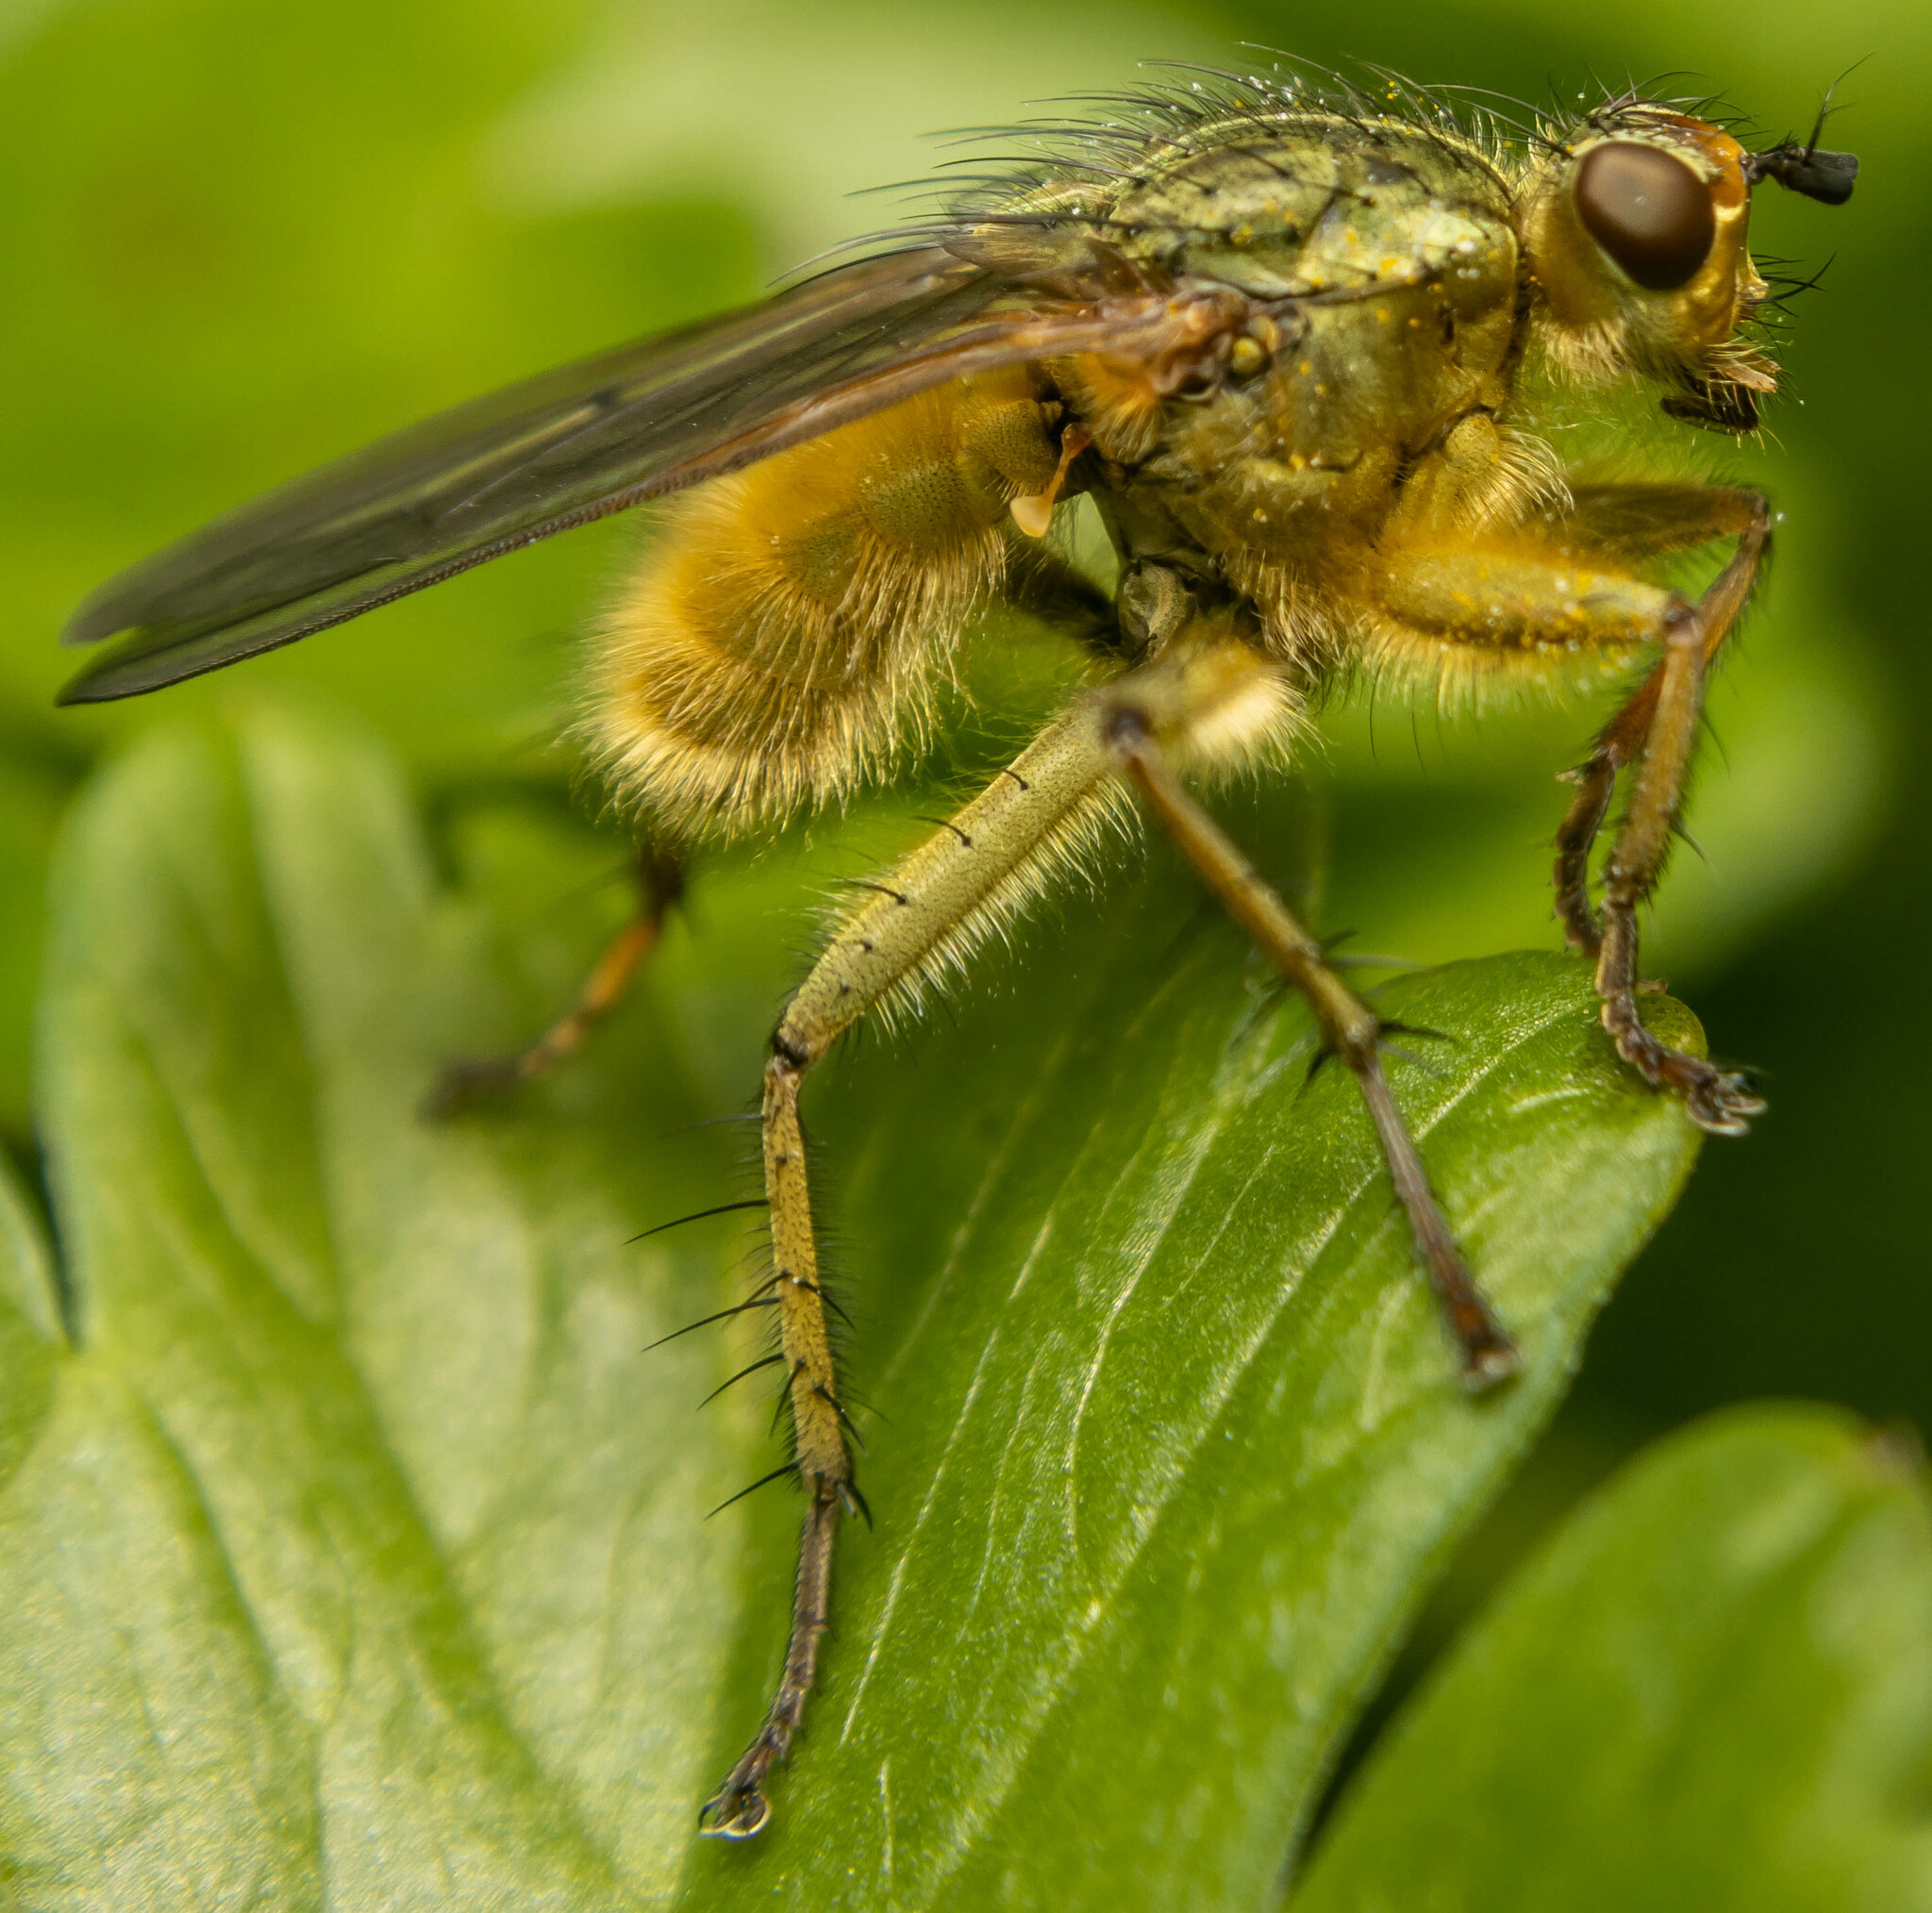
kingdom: Animalia
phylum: Arthropoda
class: Insecta
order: Diptera
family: Scathophagidae
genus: Scathophaga
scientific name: Scathophaga stercoraria
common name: Yellow dung fly
